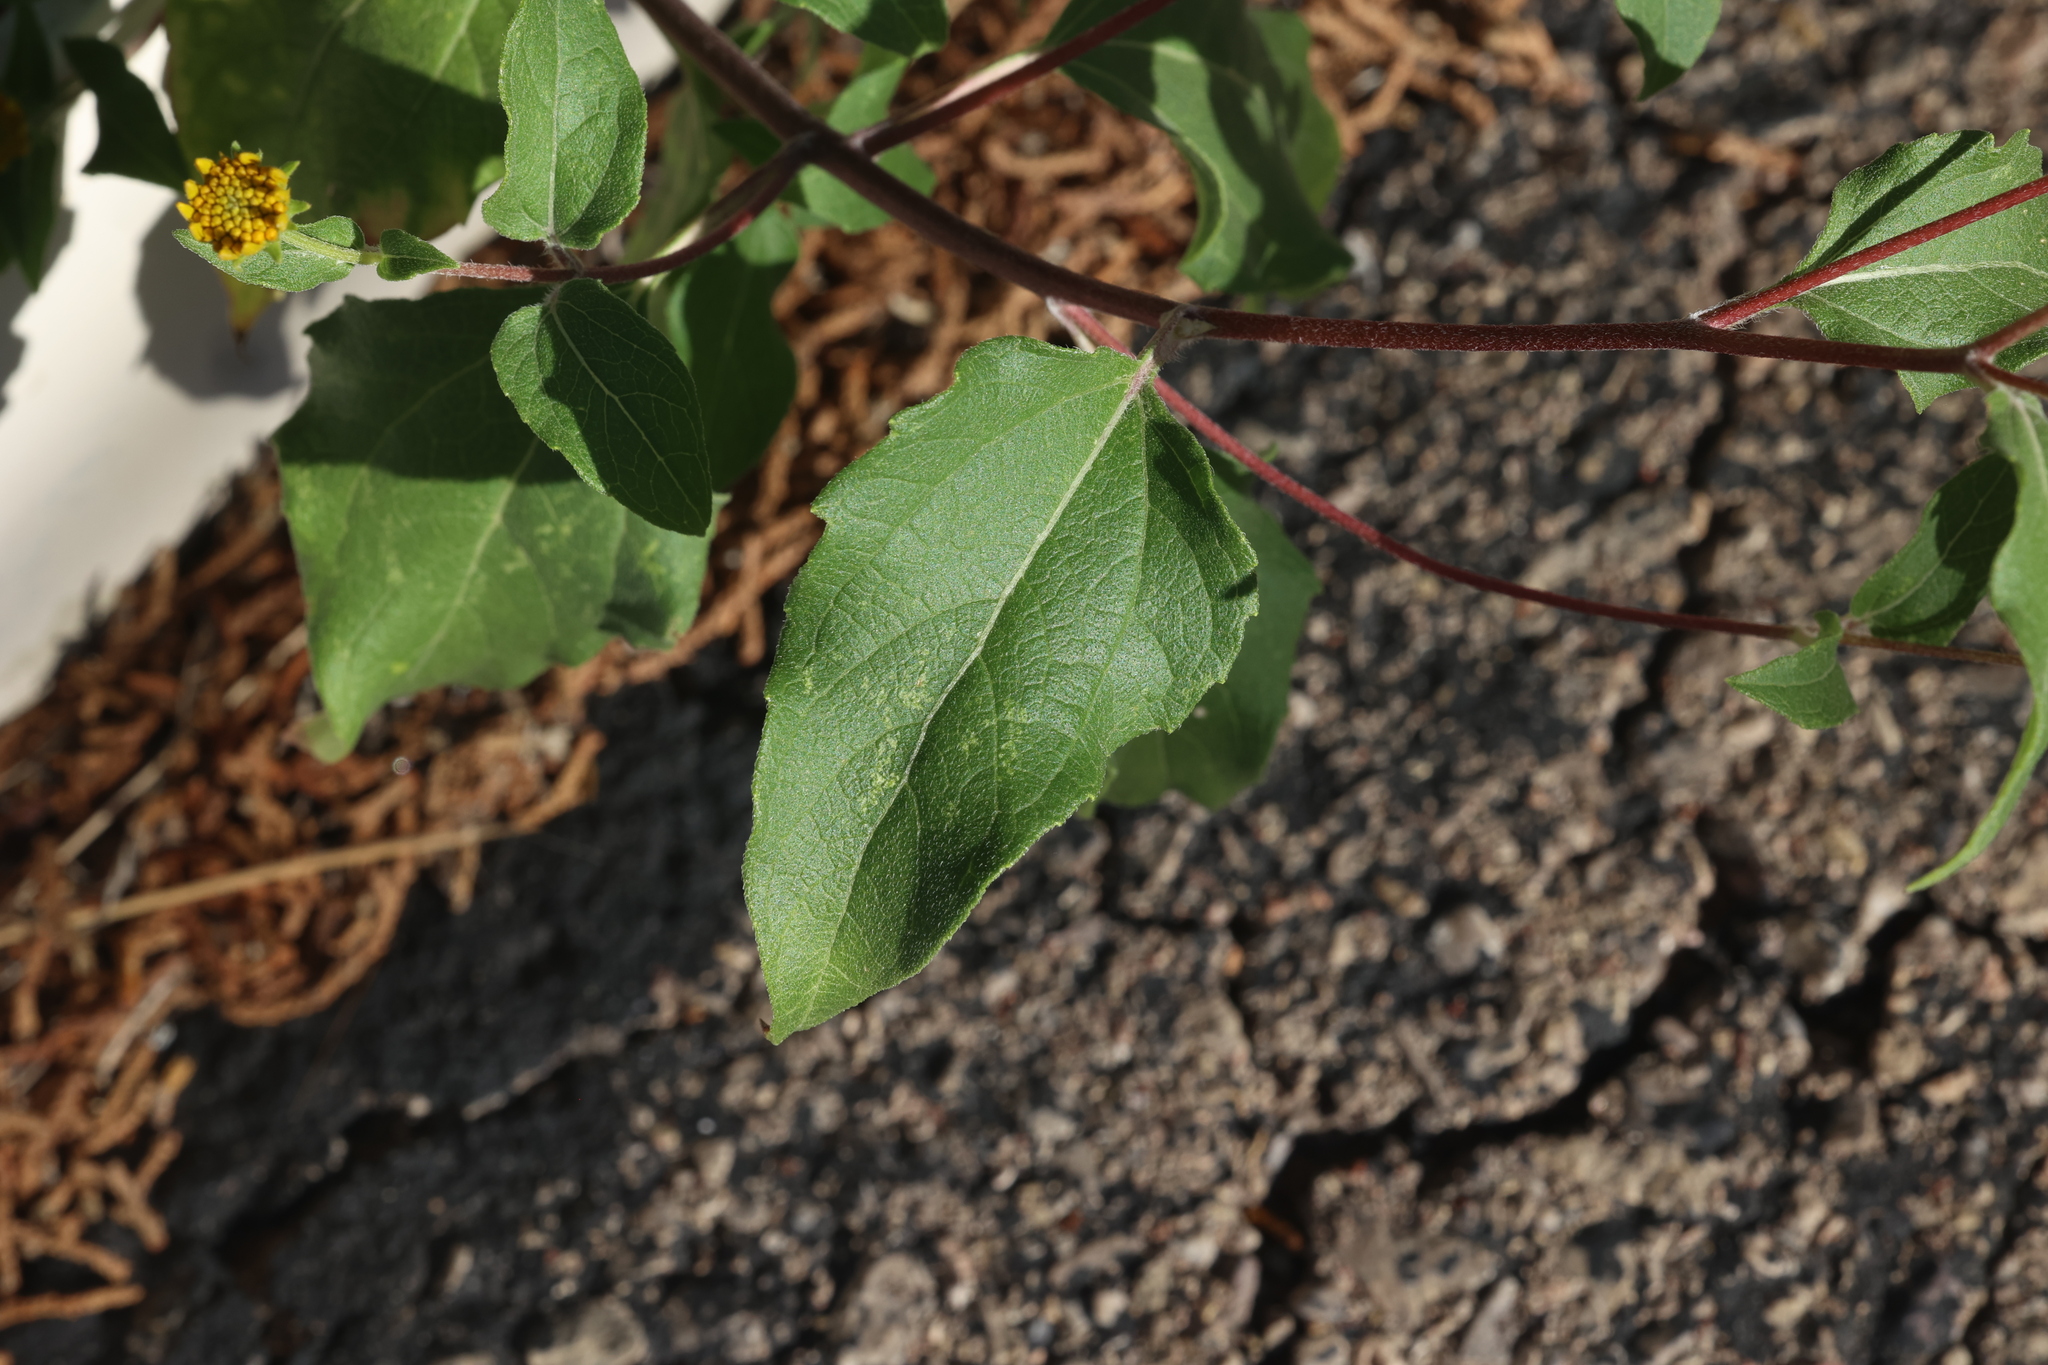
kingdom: Plantae
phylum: Tracheophyta
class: Magnoliopsida
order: Asterales
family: Asteraceae
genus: Viguiera
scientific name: Viguiera dentata
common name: Toothleaf
